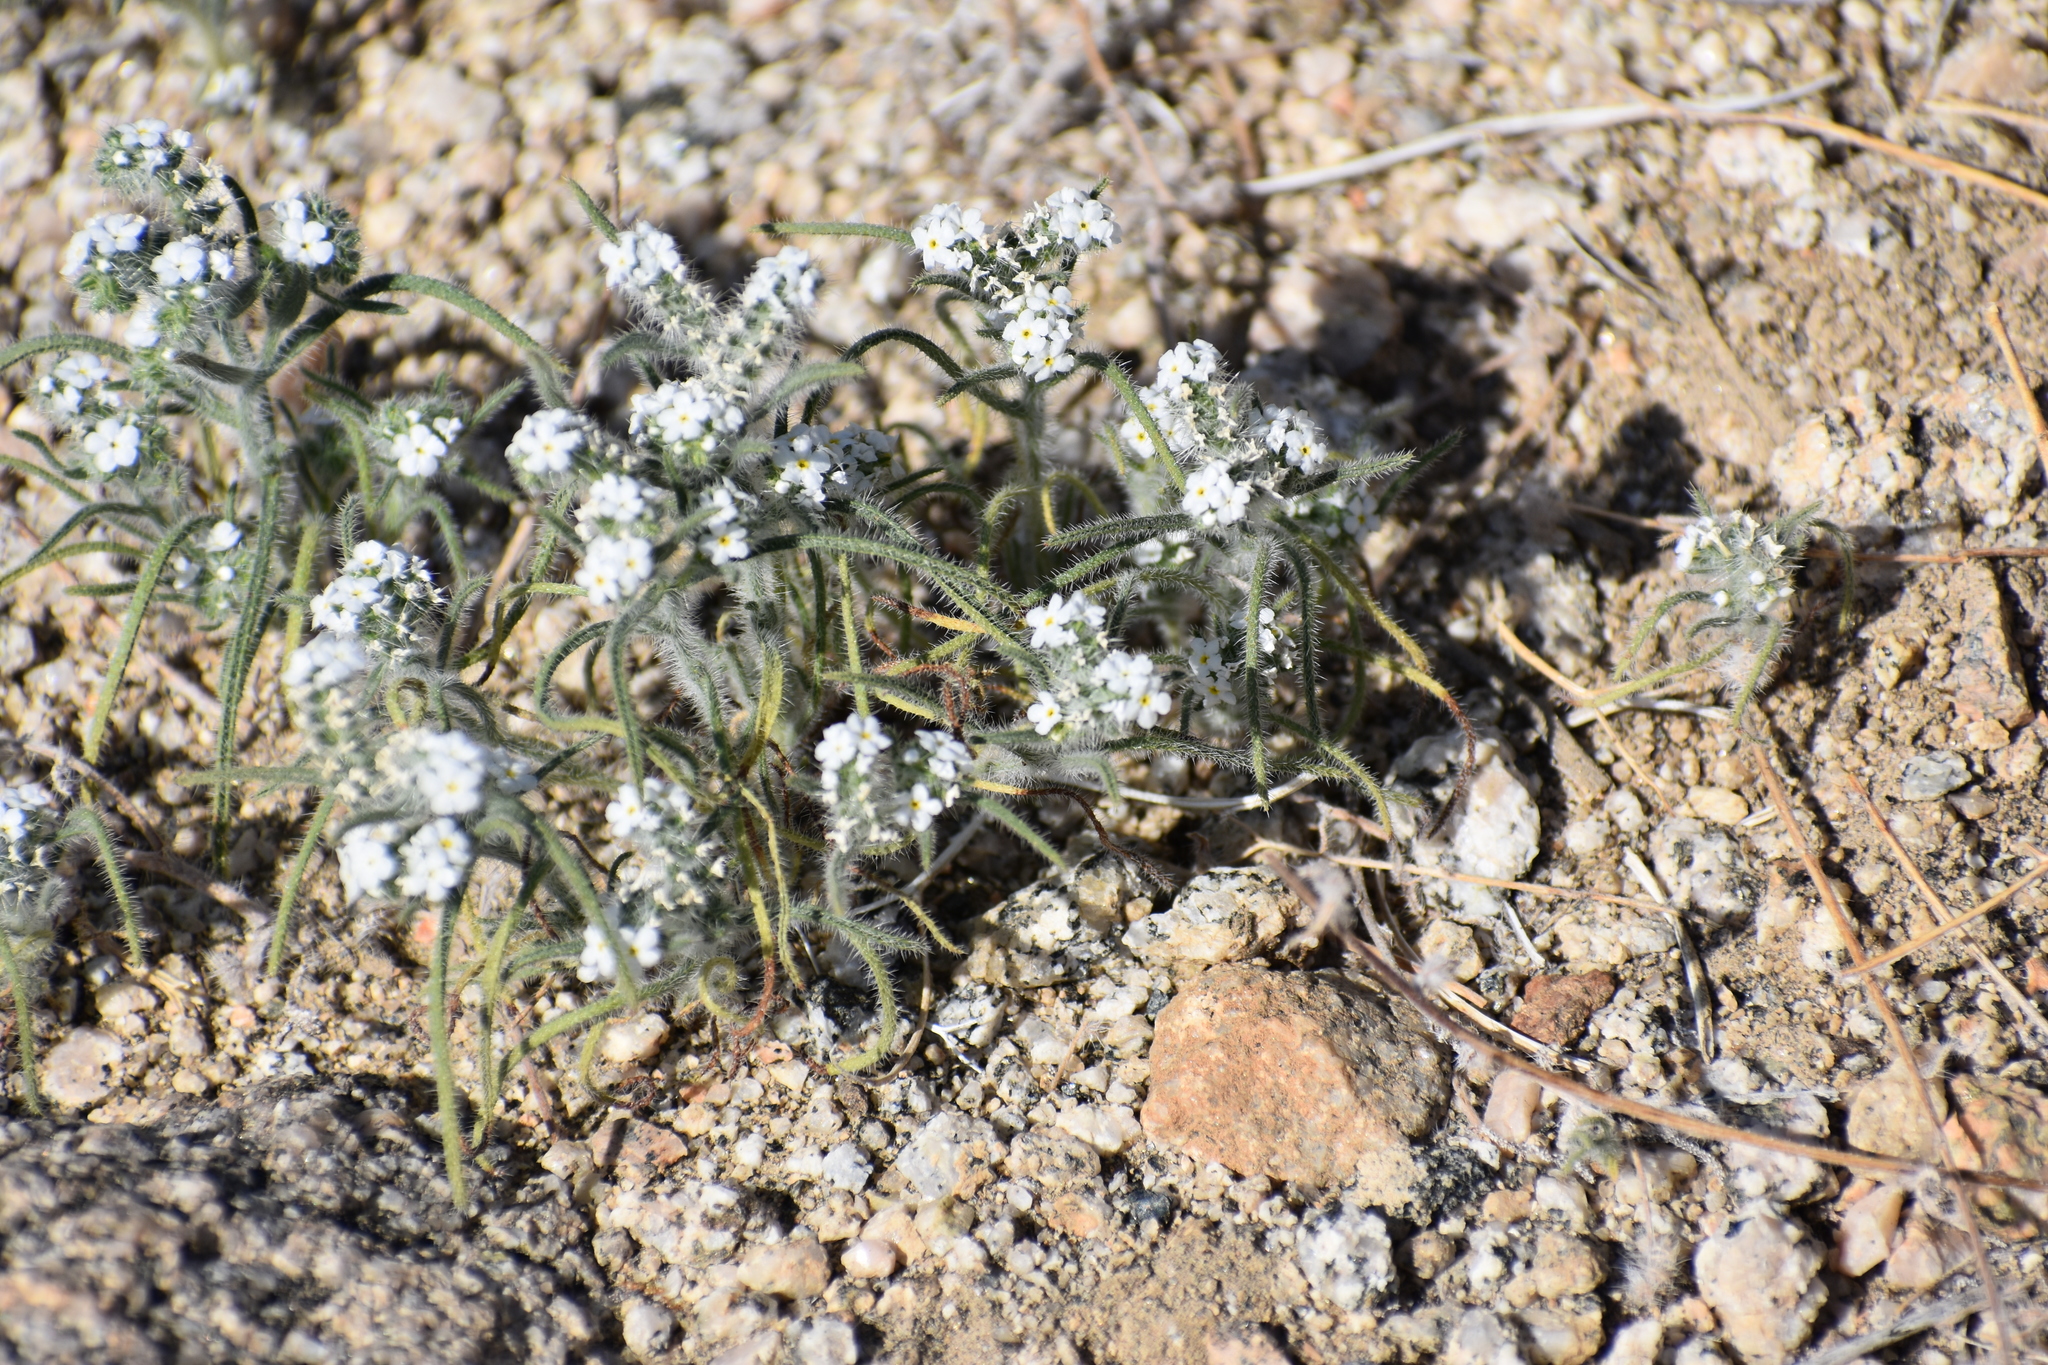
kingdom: Plantae
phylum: Tracheophyta
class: Magnoliopsida
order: Boraginales
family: Boraginaceae
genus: Johnstonella
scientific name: Johnstonella angustifolia
